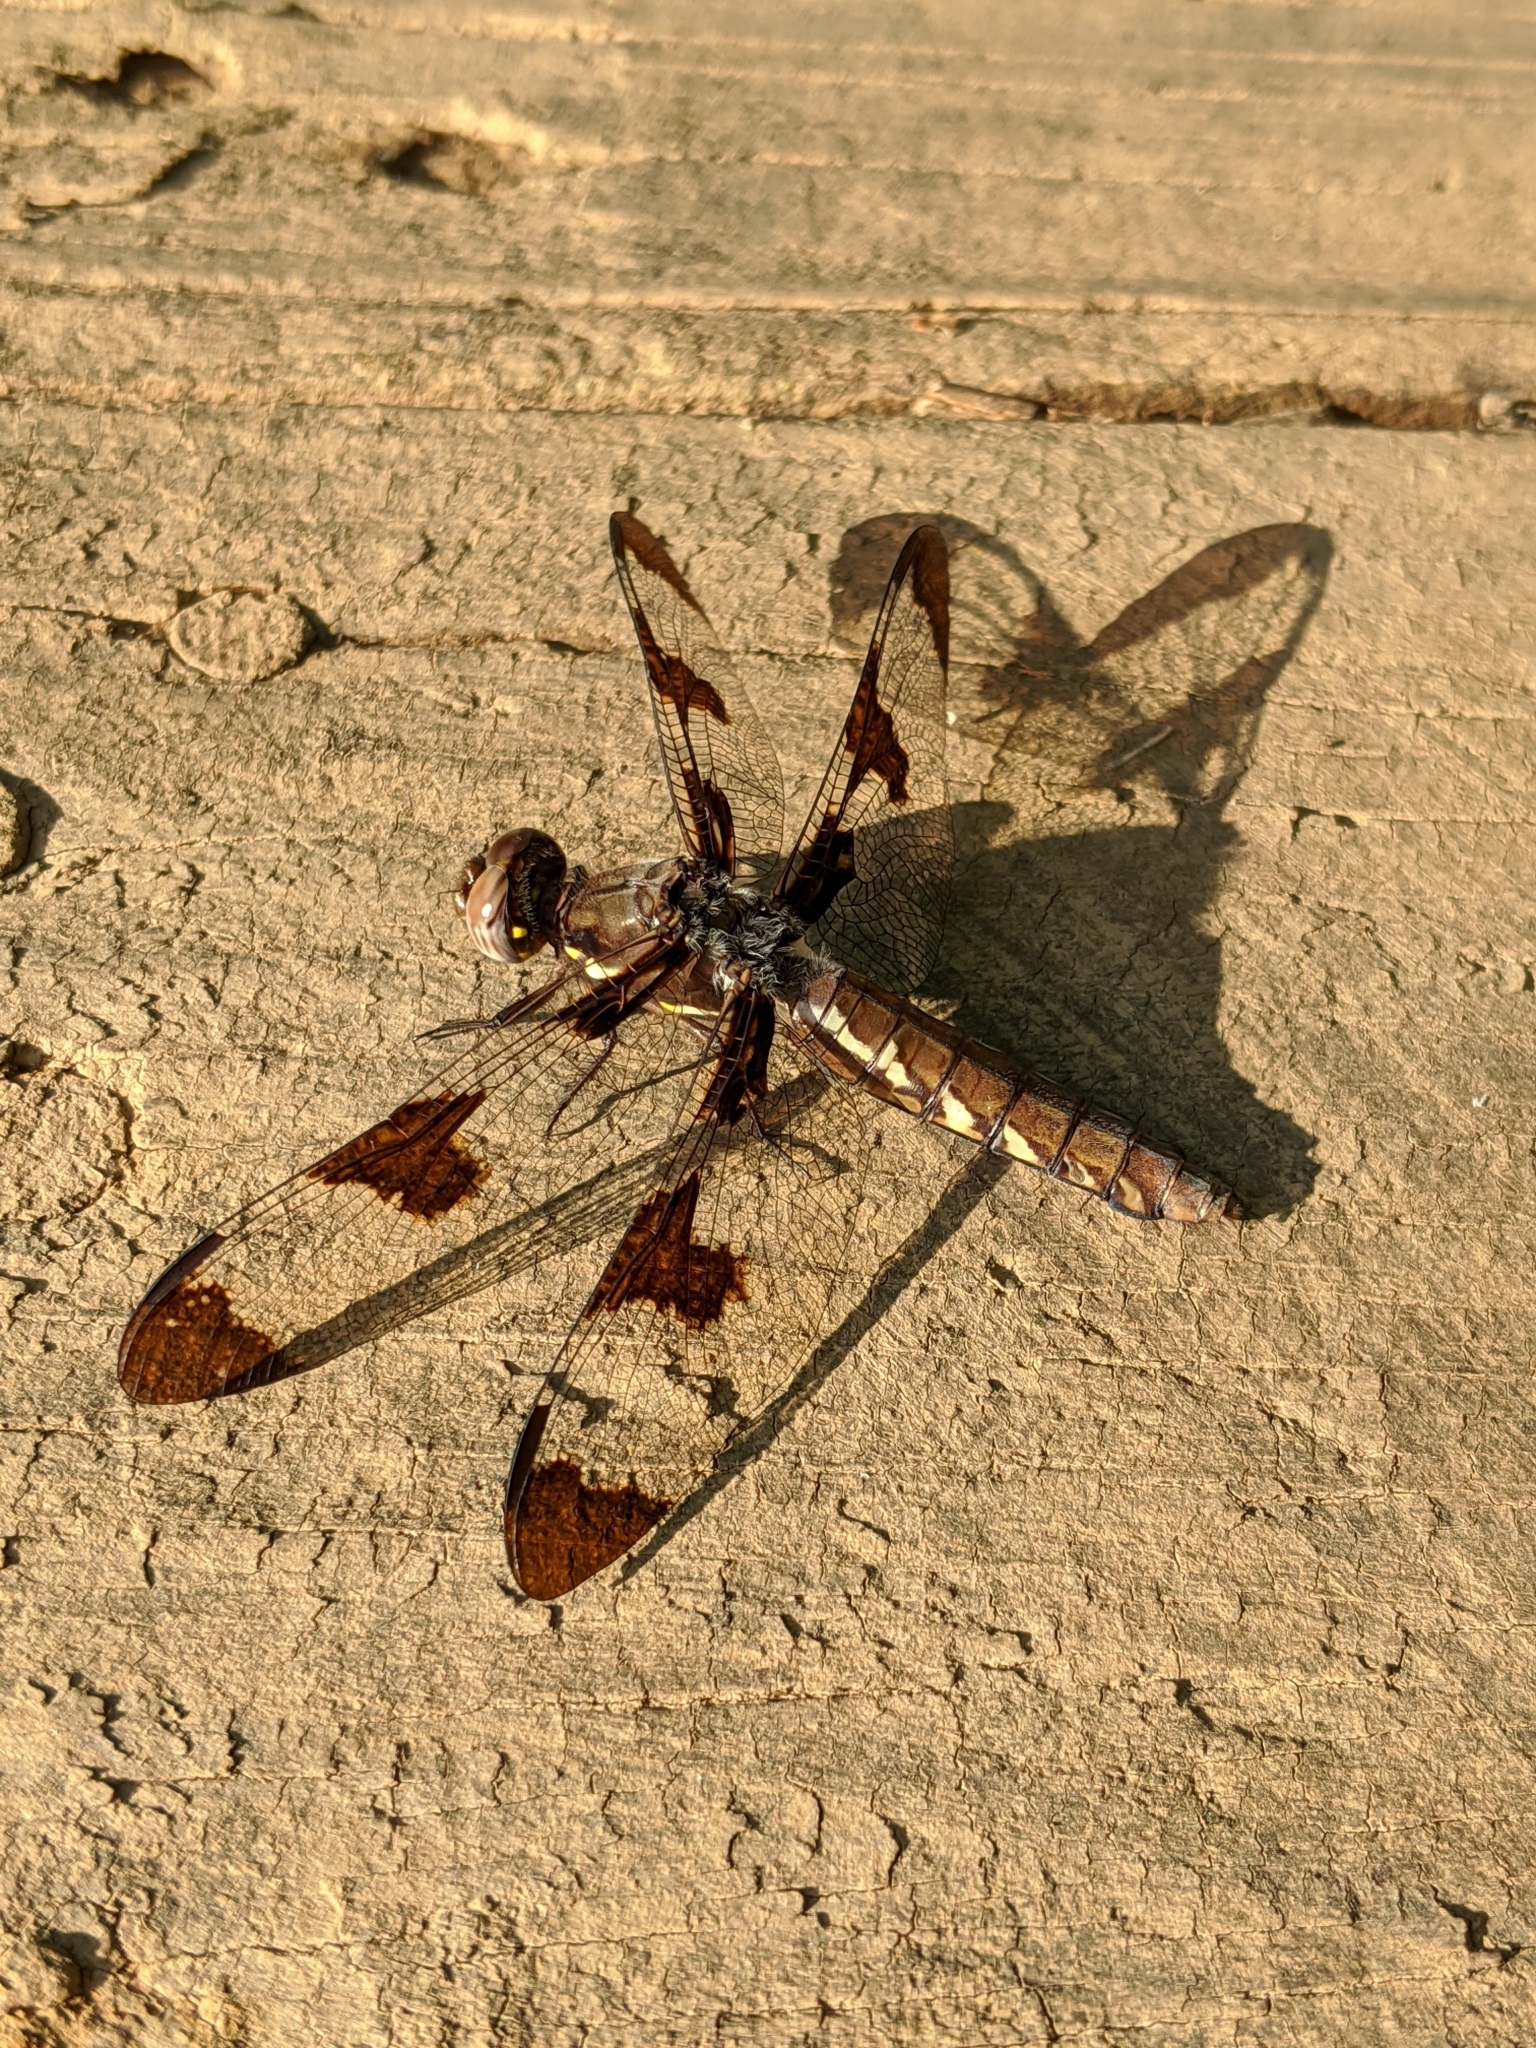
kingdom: Animalia
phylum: Arthropoda
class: Insecta
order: Odonata
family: Libellulidae
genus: Plathemis
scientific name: Plathemis lydia
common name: Common whitetail
